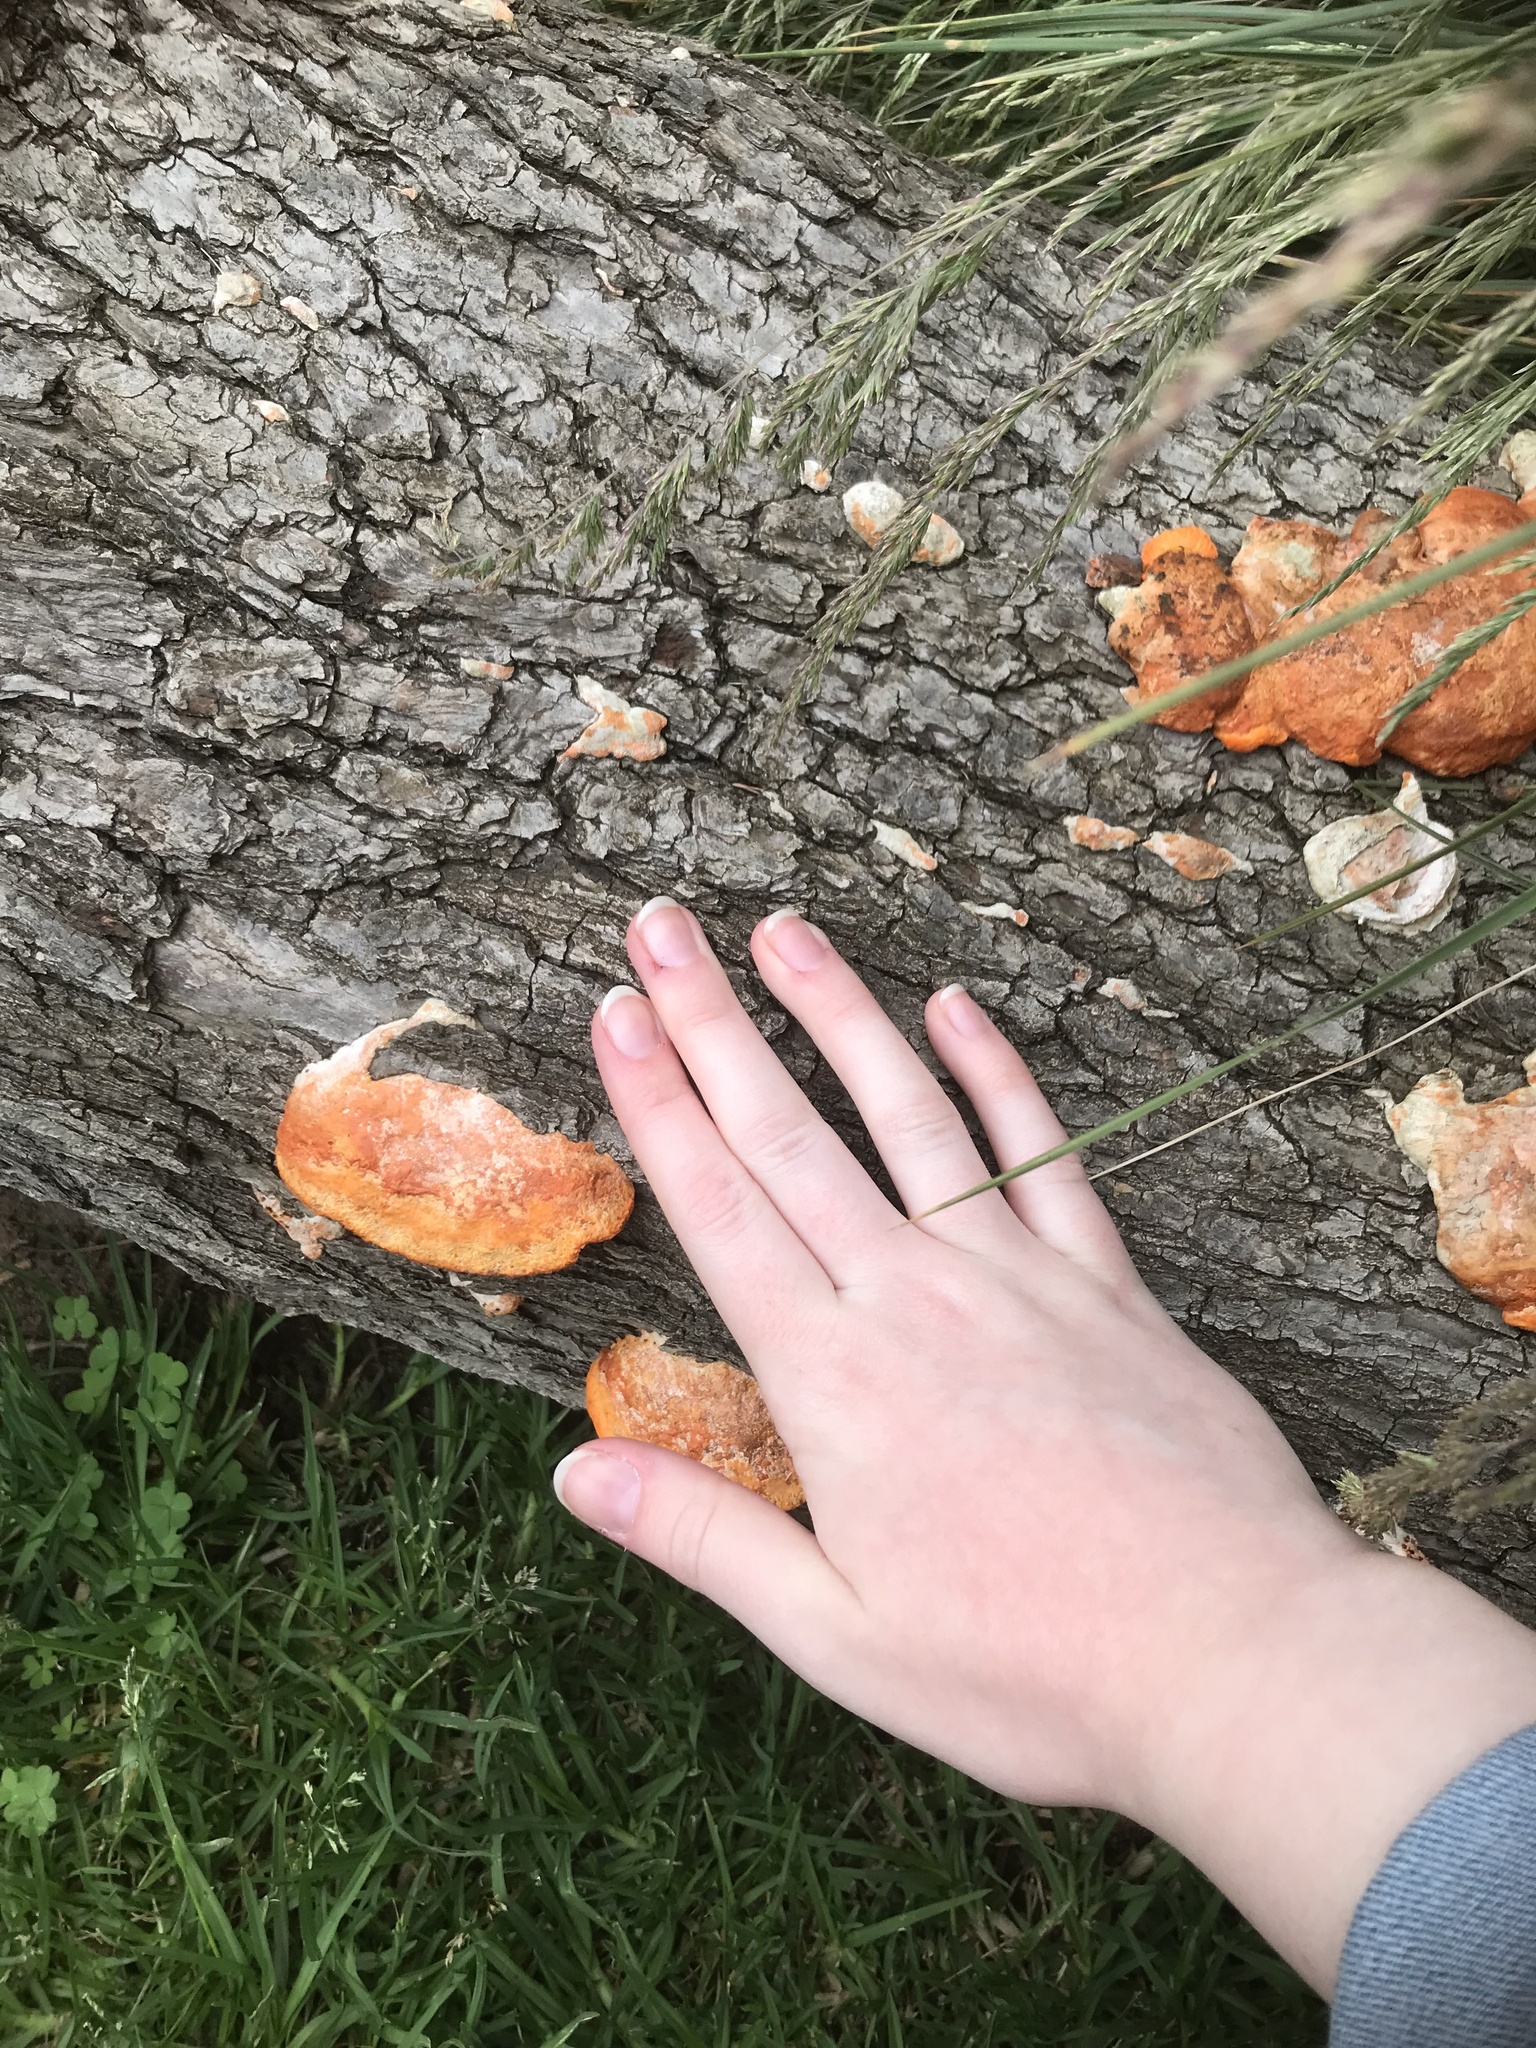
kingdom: Fungi
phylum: Basidiomycota
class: Agaricomycetes
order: Polyporales
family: Polyporaceae
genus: Trametes
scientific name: Trametes coccinea
